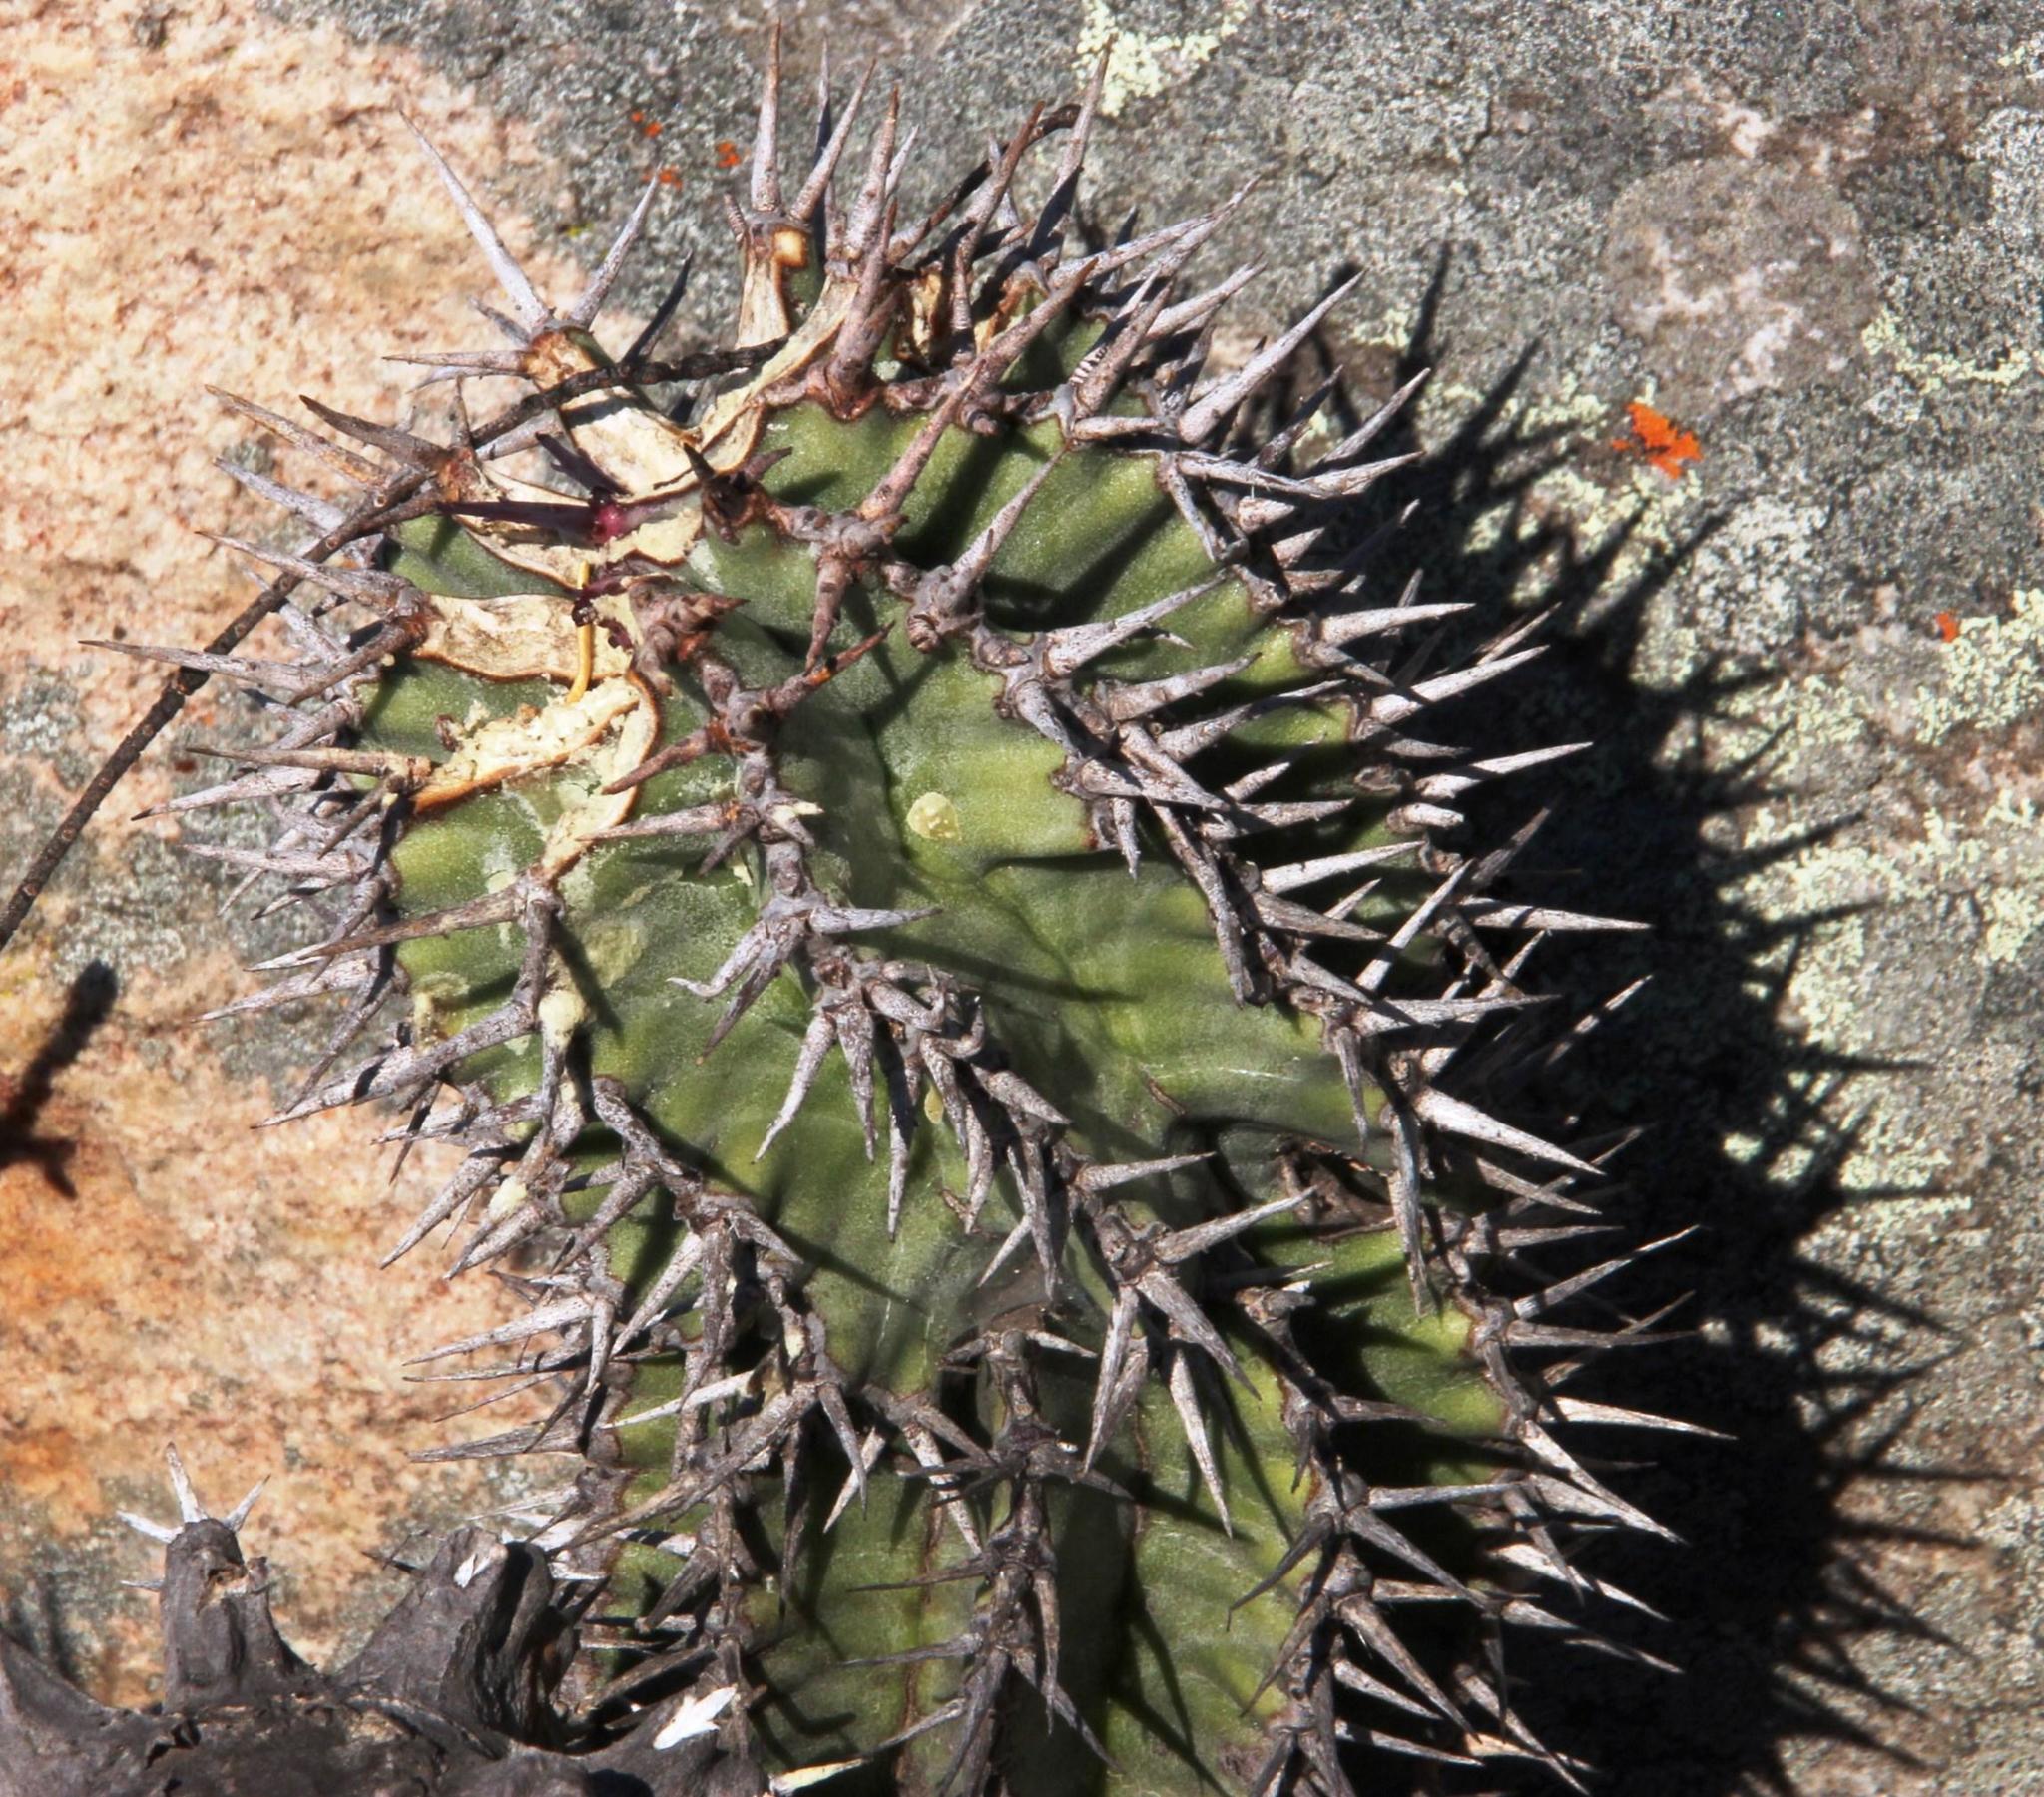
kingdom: Plantae
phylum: Tracheophyta
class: Magnoliopsida
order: Malpighiales
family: Euphorbiaceae
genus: Euphorbia
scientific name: Euphorbia polygona
